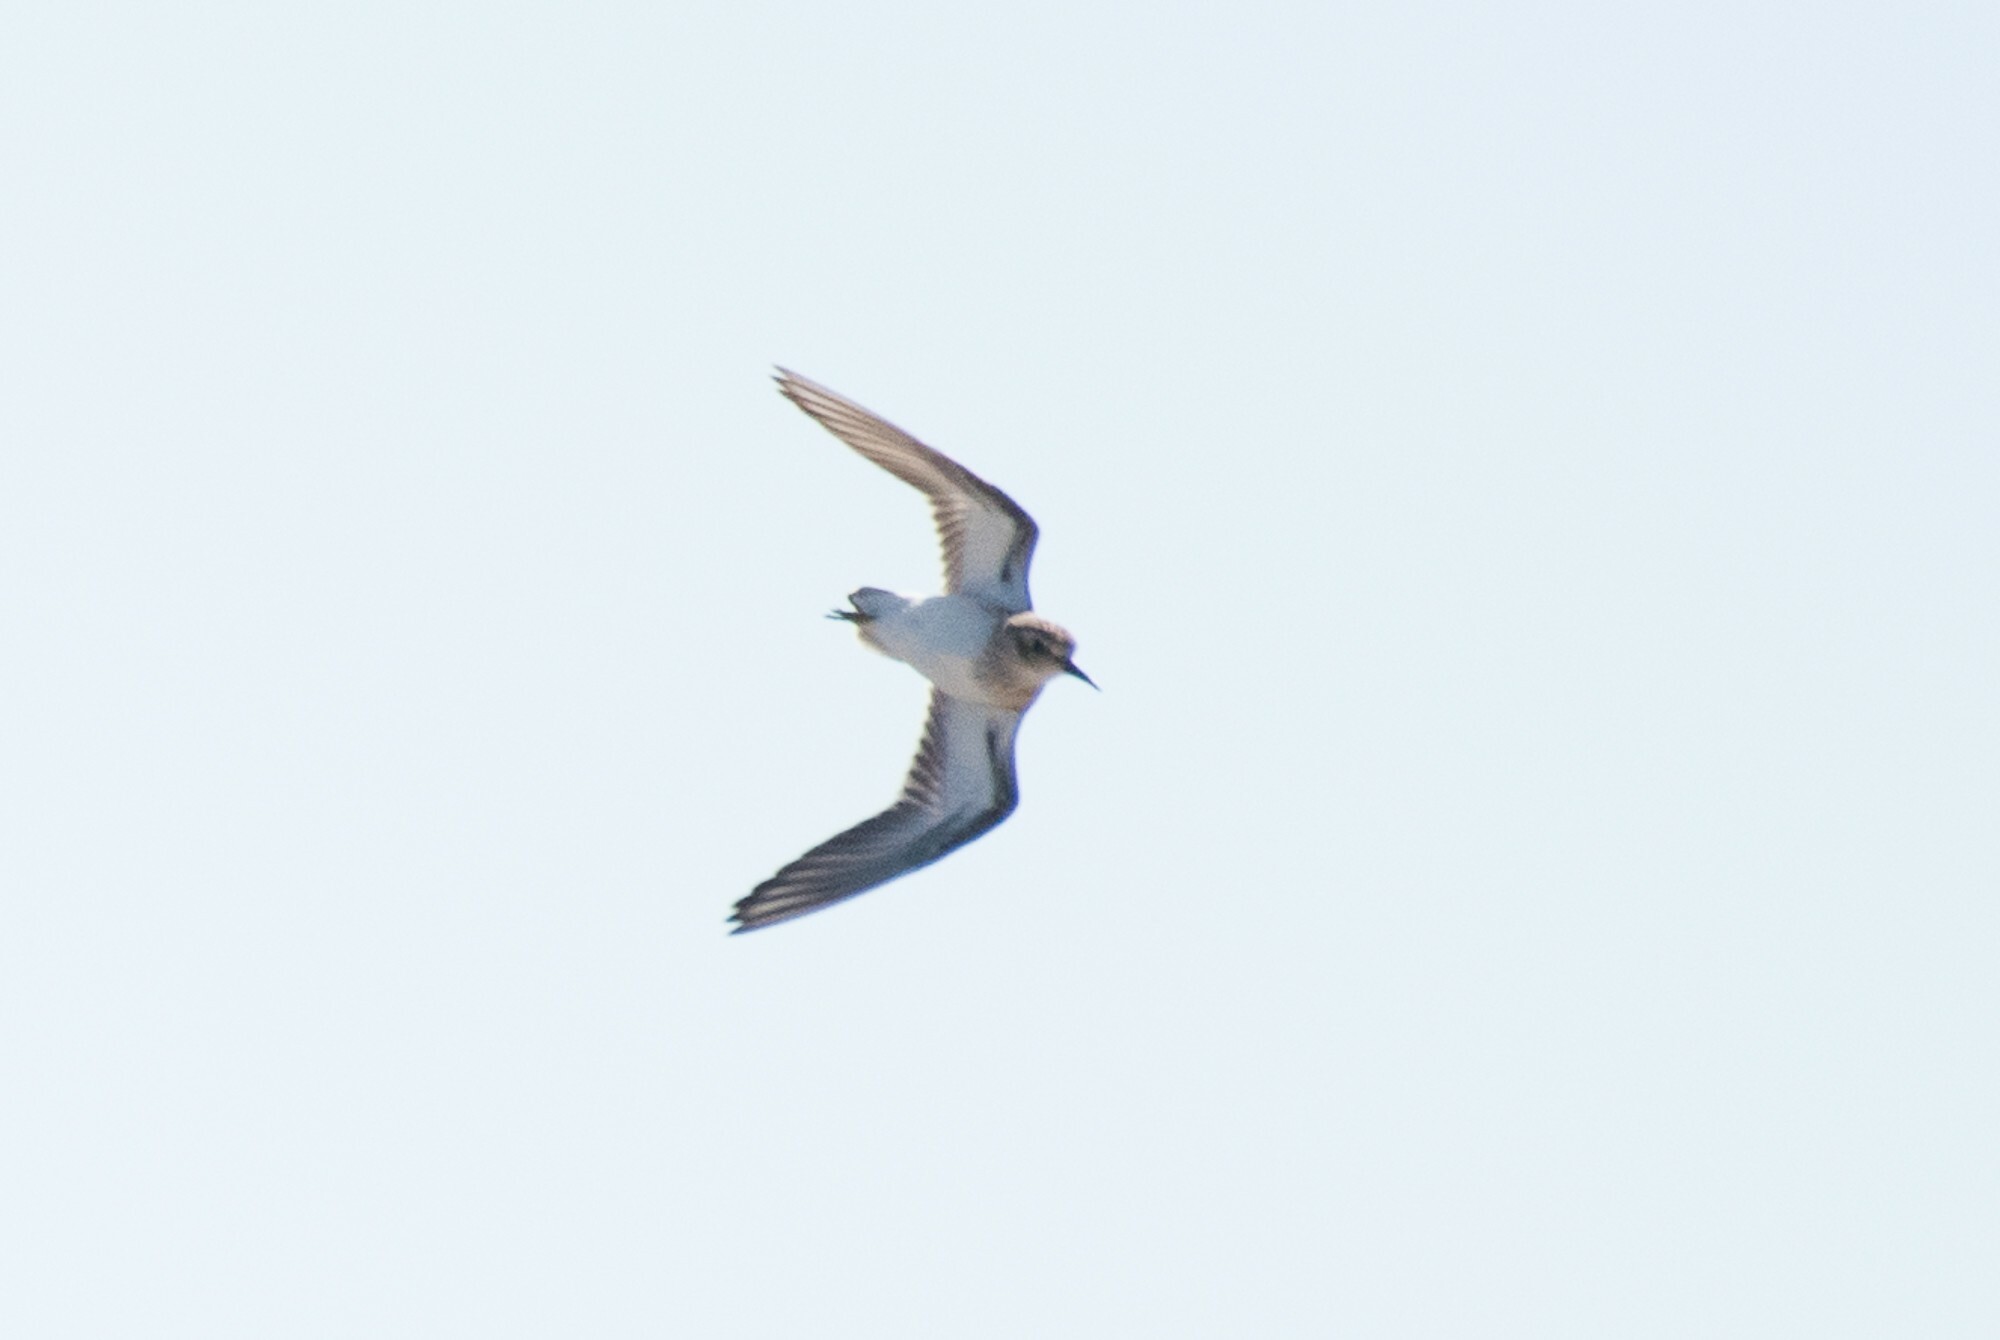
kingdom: Animalia
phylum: Chordata
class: Aves
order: Charadriiformes
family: Scolopacidae
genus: Calidris
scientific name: Calidris bairdii
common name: Baird's sandpiper
